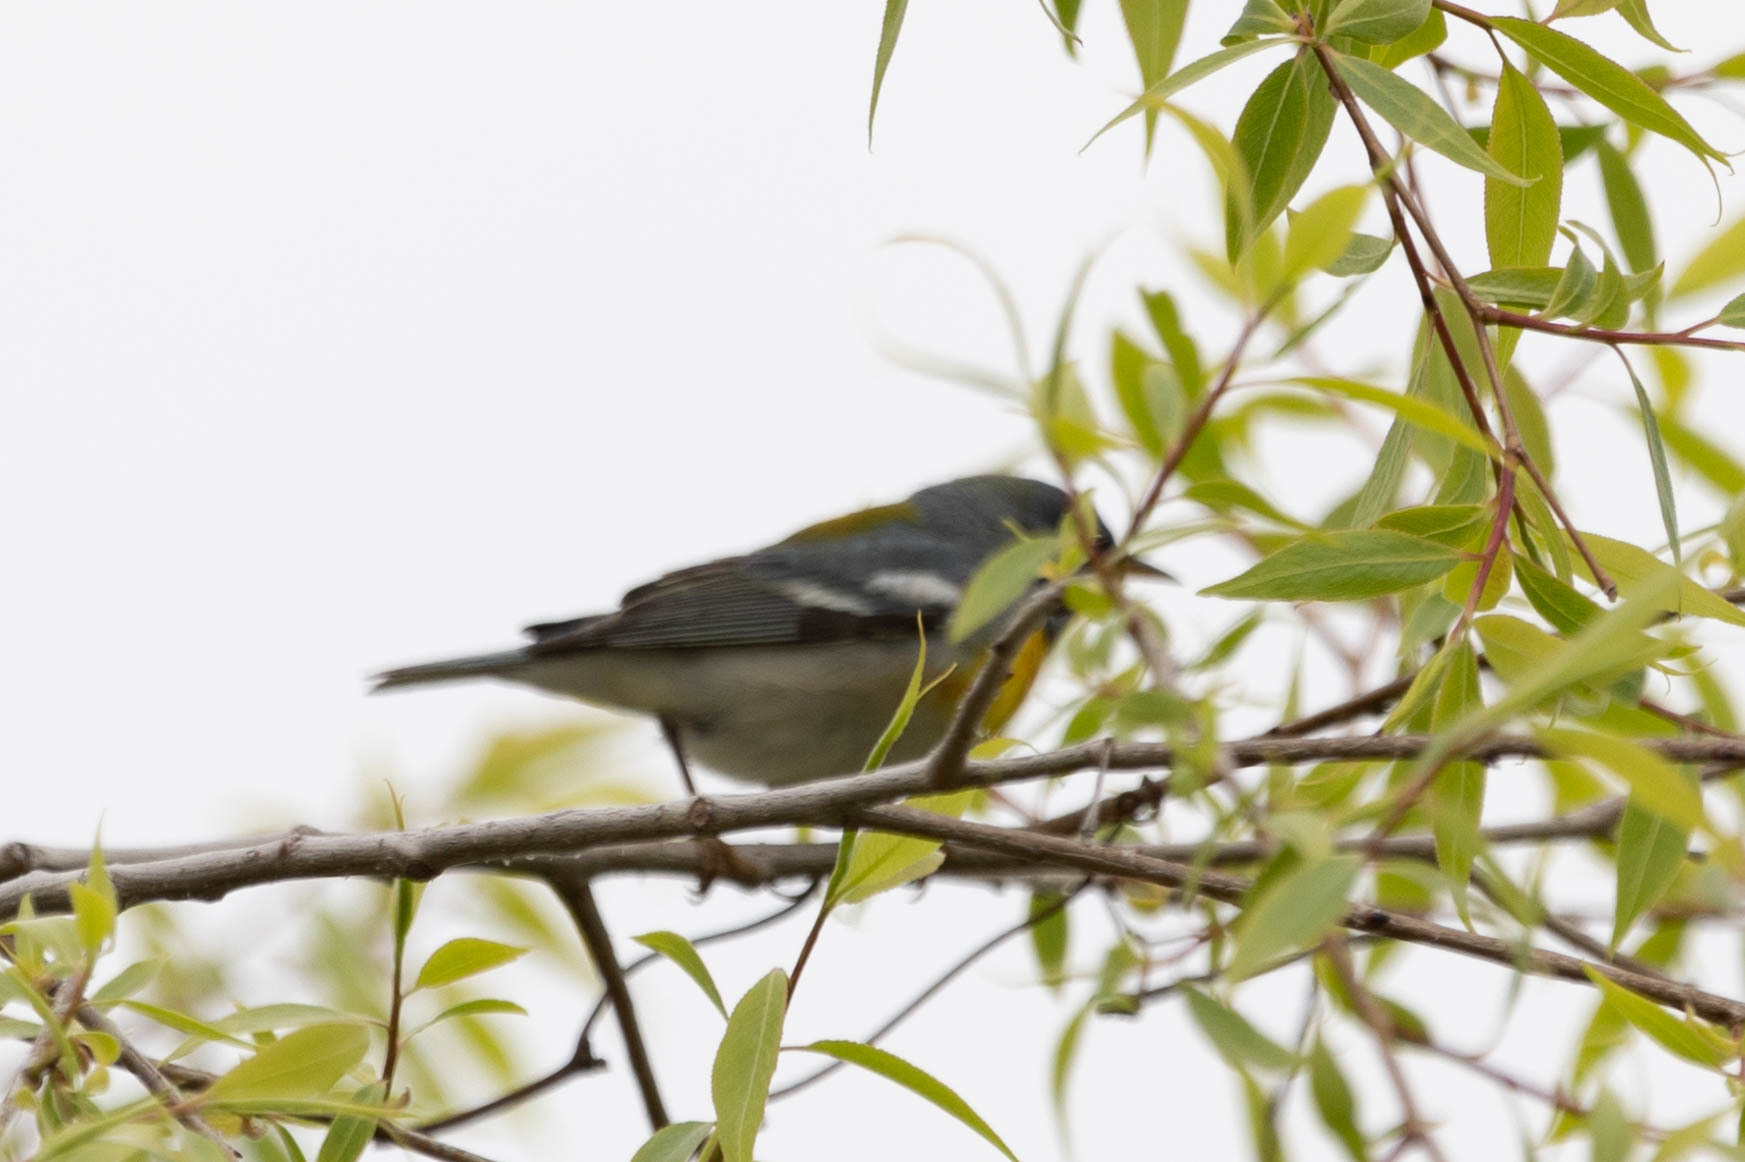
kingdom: Animalia
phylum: Chordata
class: Aves
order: Passeriformes
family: Parulidae
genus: Setophaga
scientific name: Setophaga americana
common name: Northern parula
